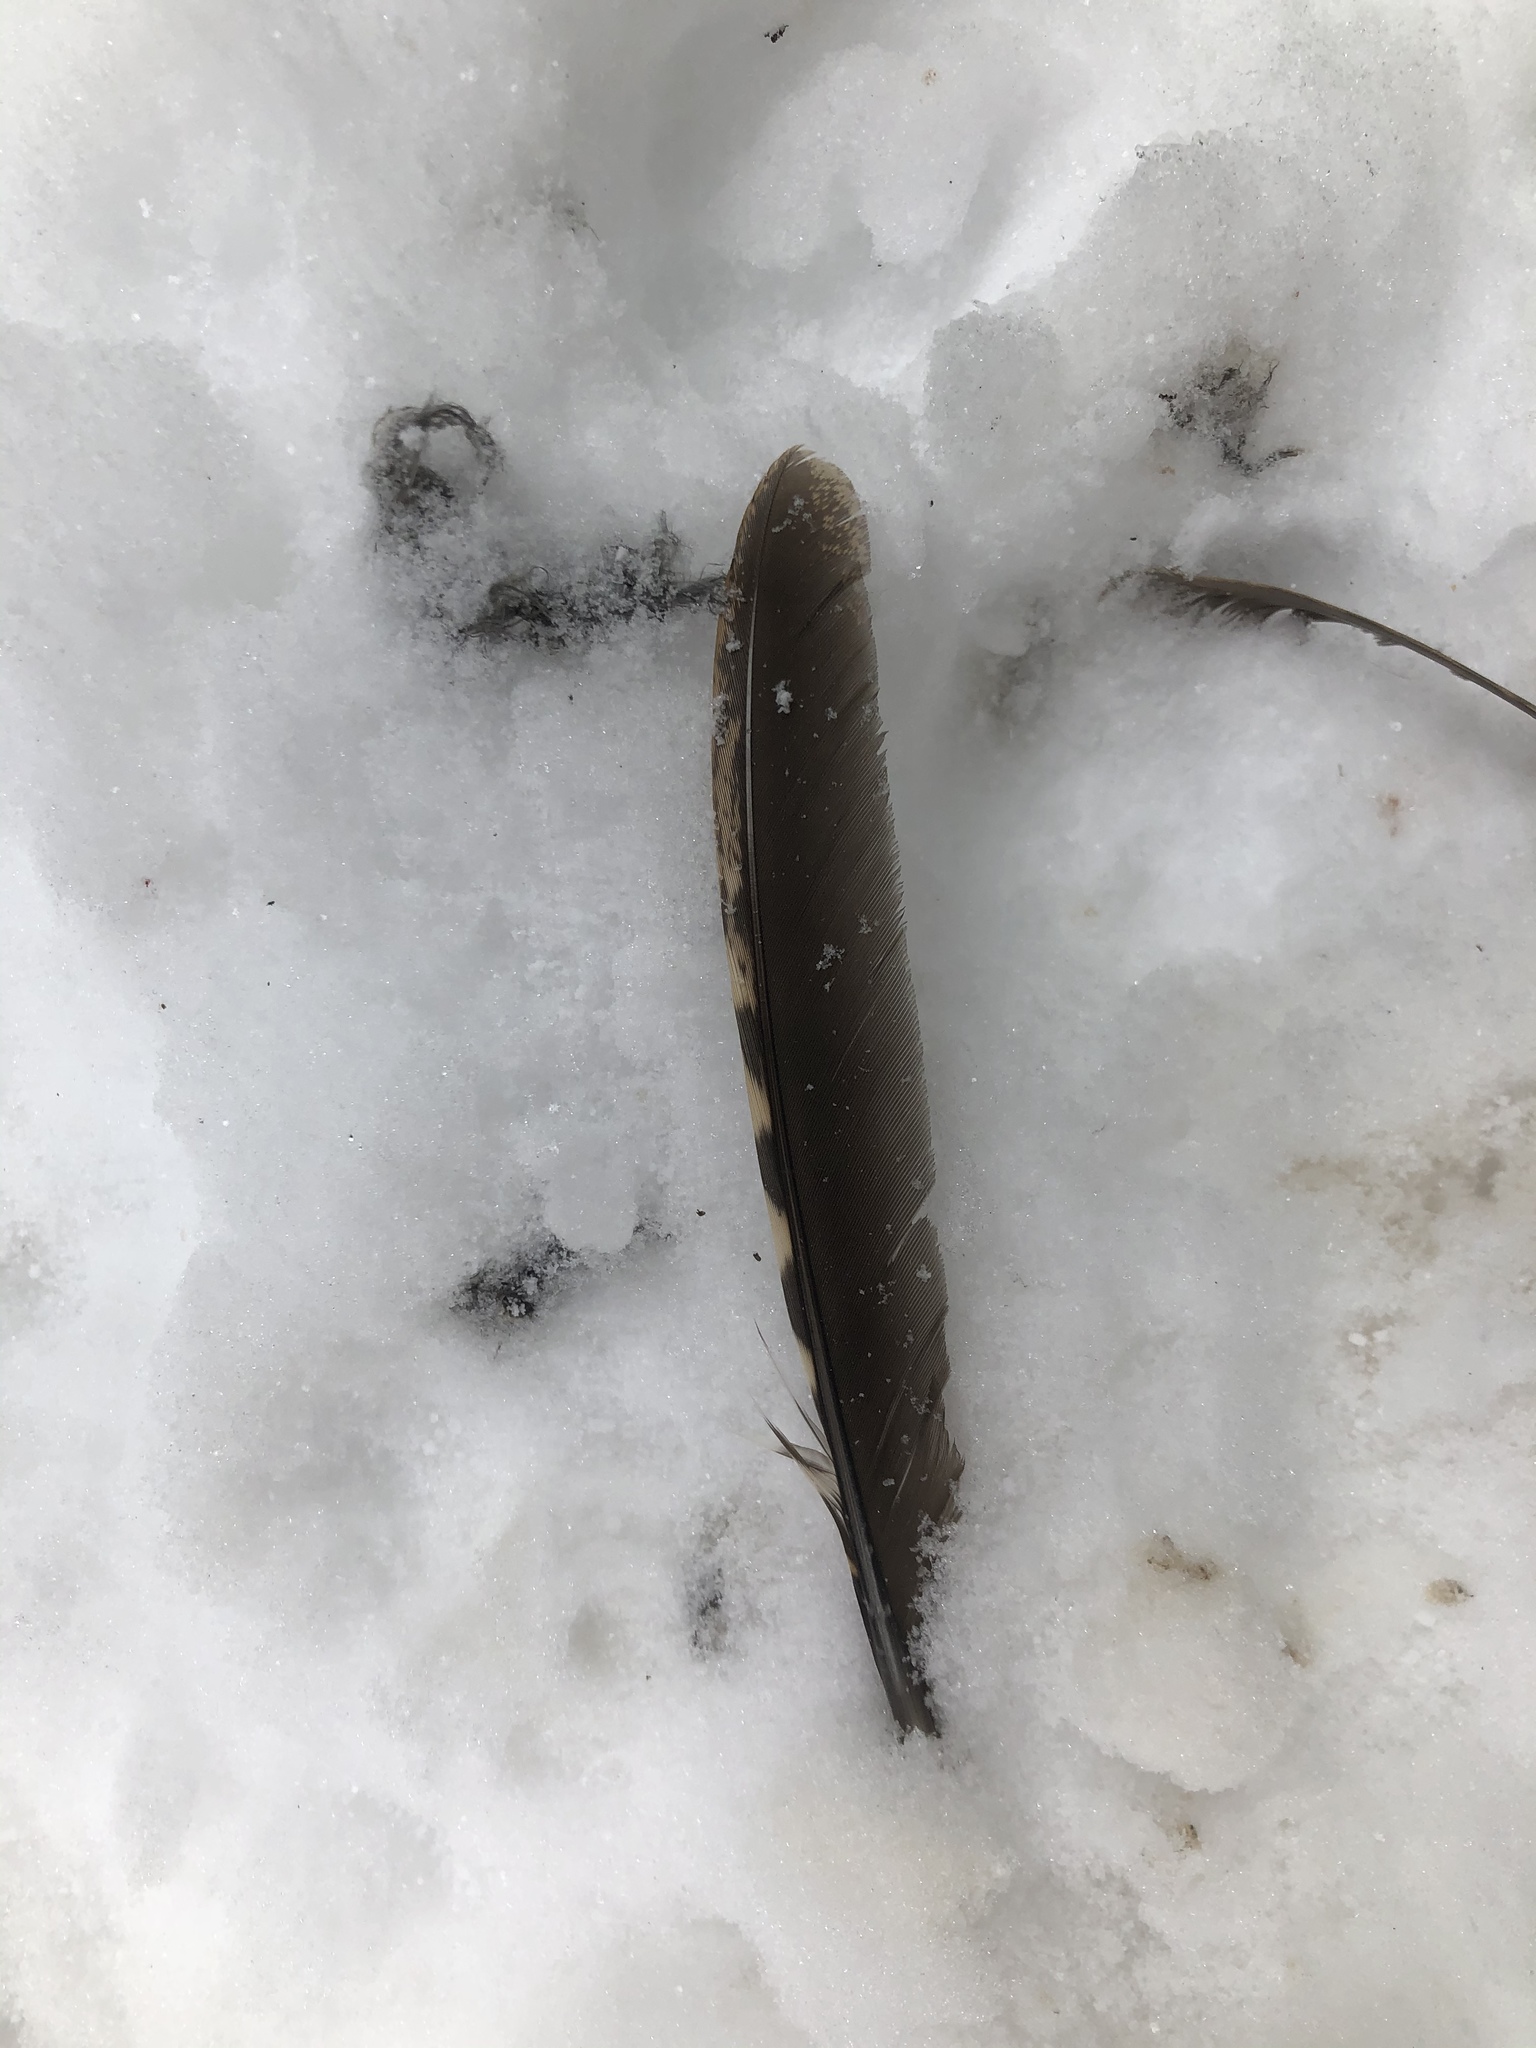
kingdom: Animalia
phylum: Chordata
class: Aves
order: Galliformes
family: Phasianidae
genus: Bonasa
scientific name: Bonasa umbellus
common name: Ruffed grouse
